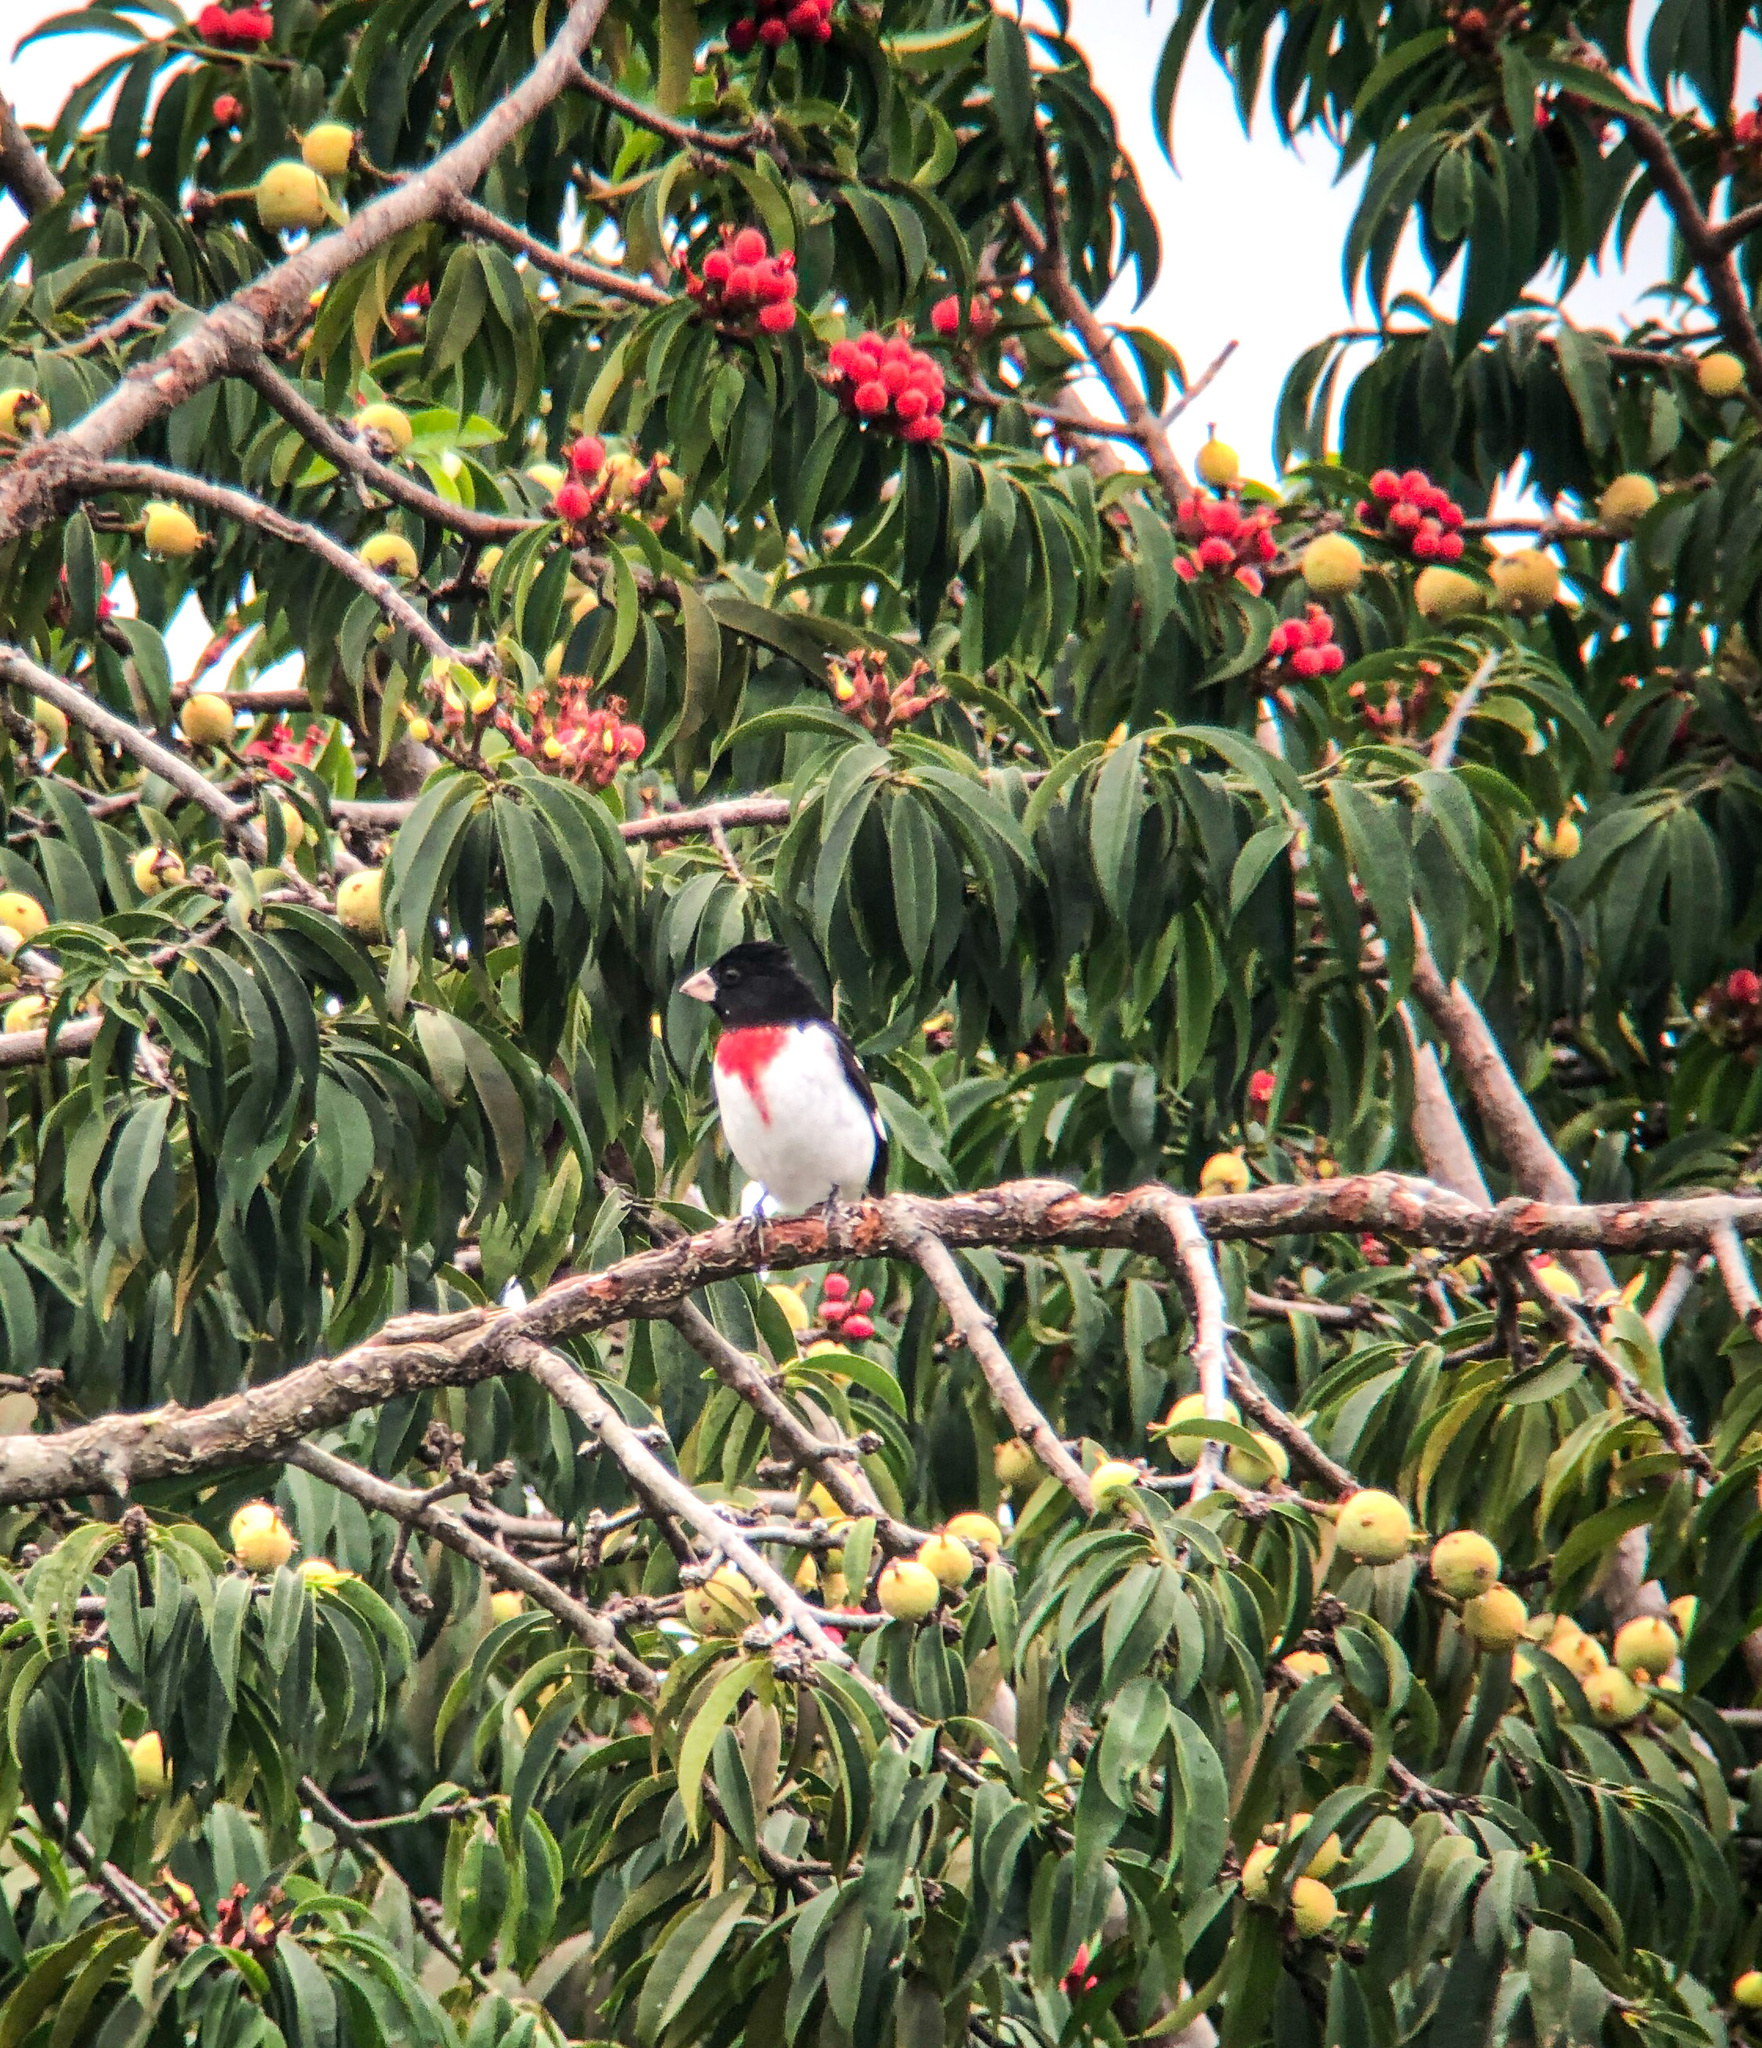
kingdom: Animalia
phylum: Chordata
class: Aves
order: Passeriformes
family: Cardinalidae
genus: Pheucticus
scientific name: Pheucticus ludovicianus
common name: Rose-breasted grosbeak
